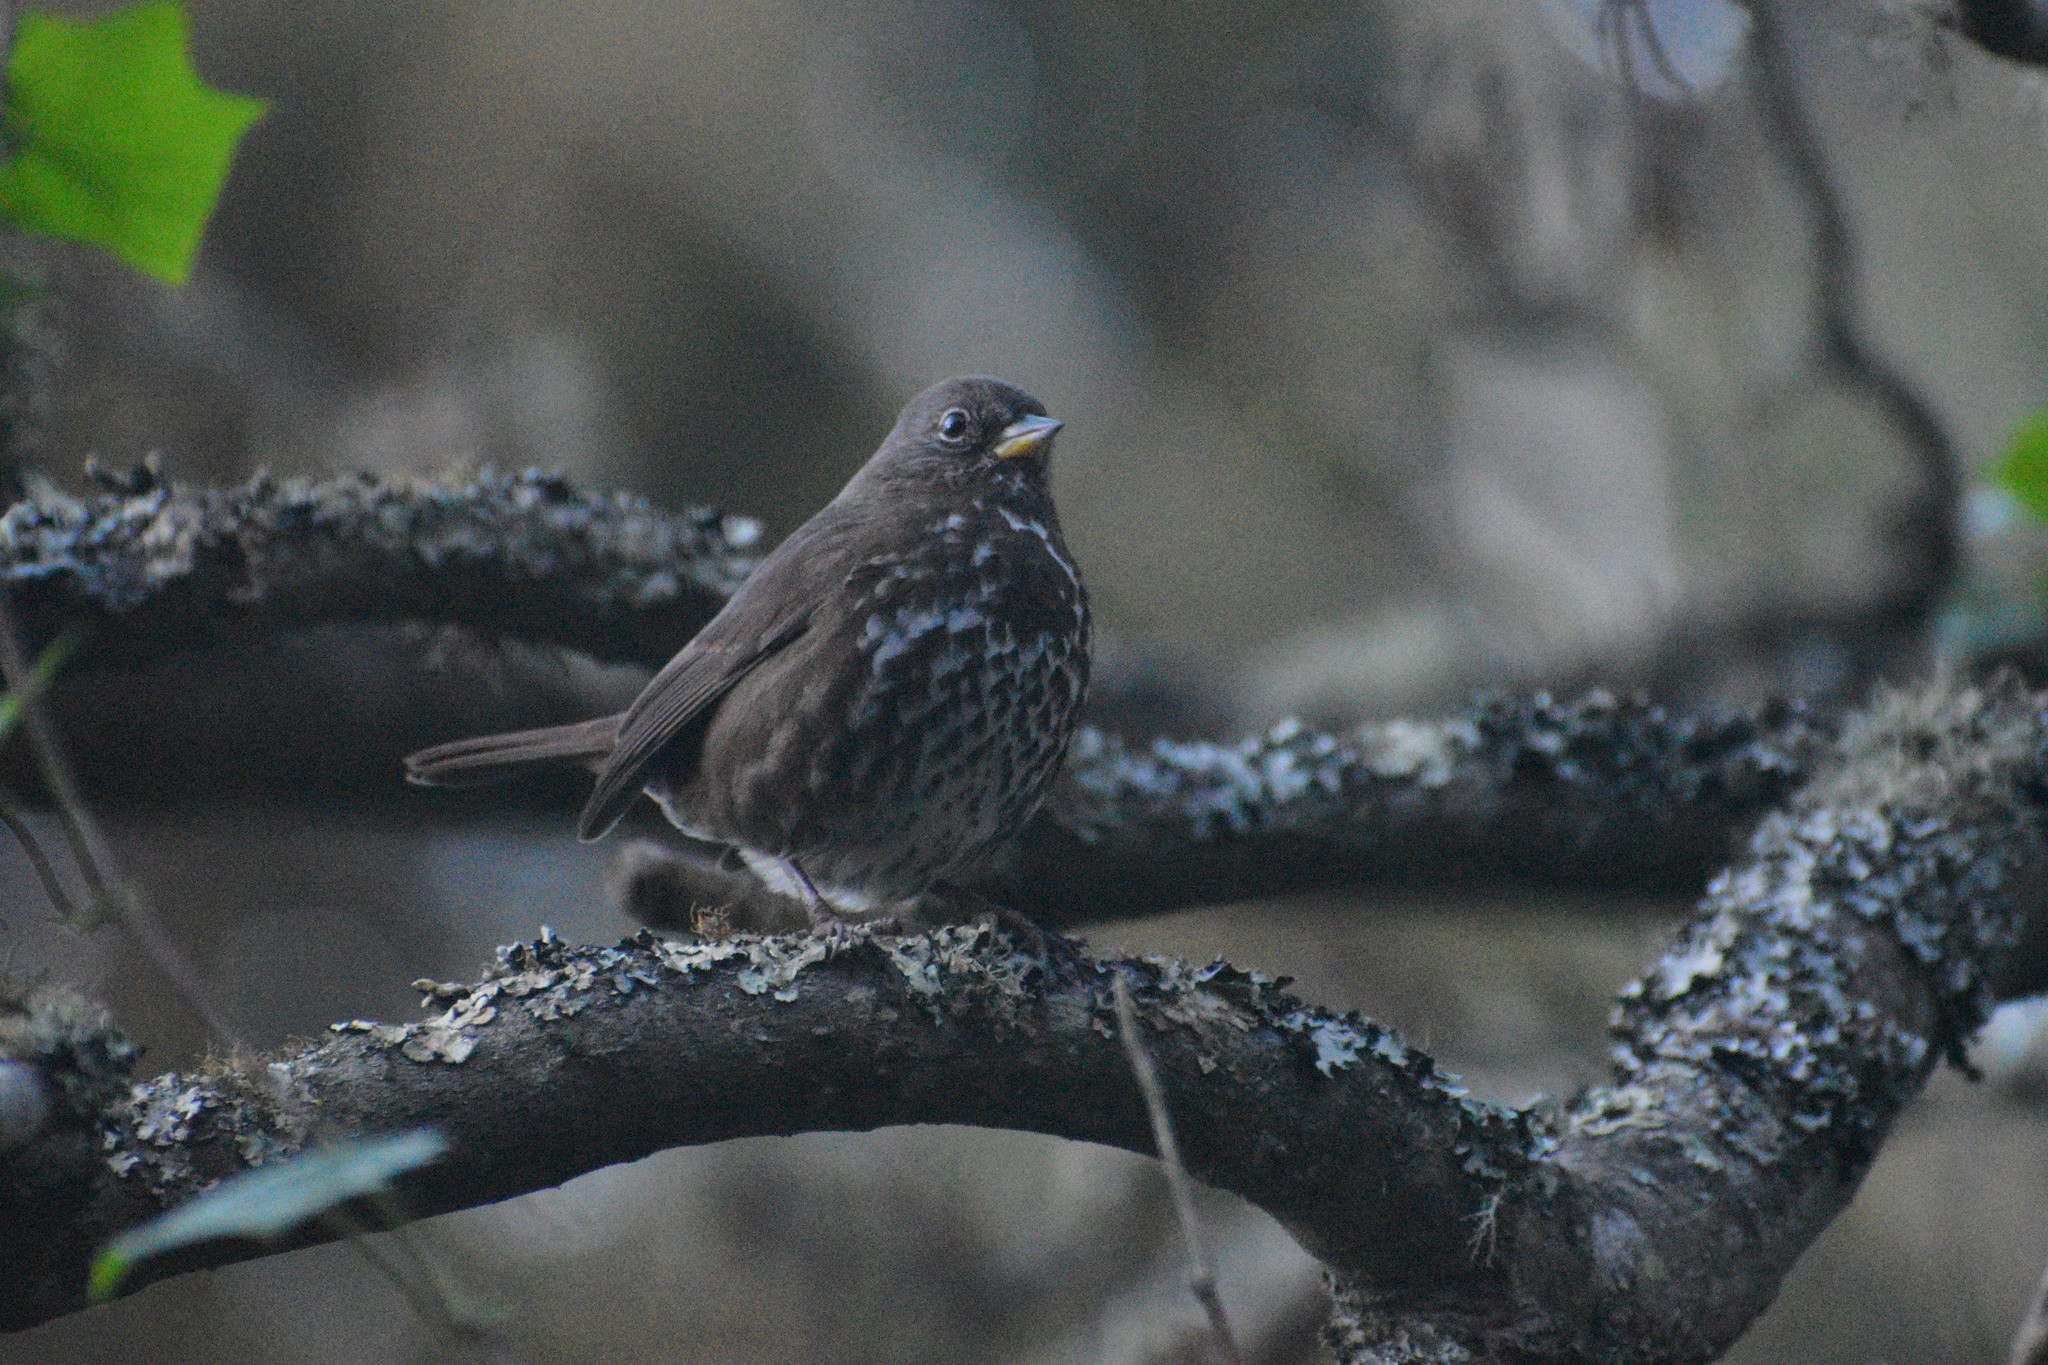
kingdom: Animalia
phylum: Chordata
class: Aves
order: Passeriformes
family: Passerellidae
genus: Passerella
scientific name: Passerella iliaca
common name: Fox sparrow
